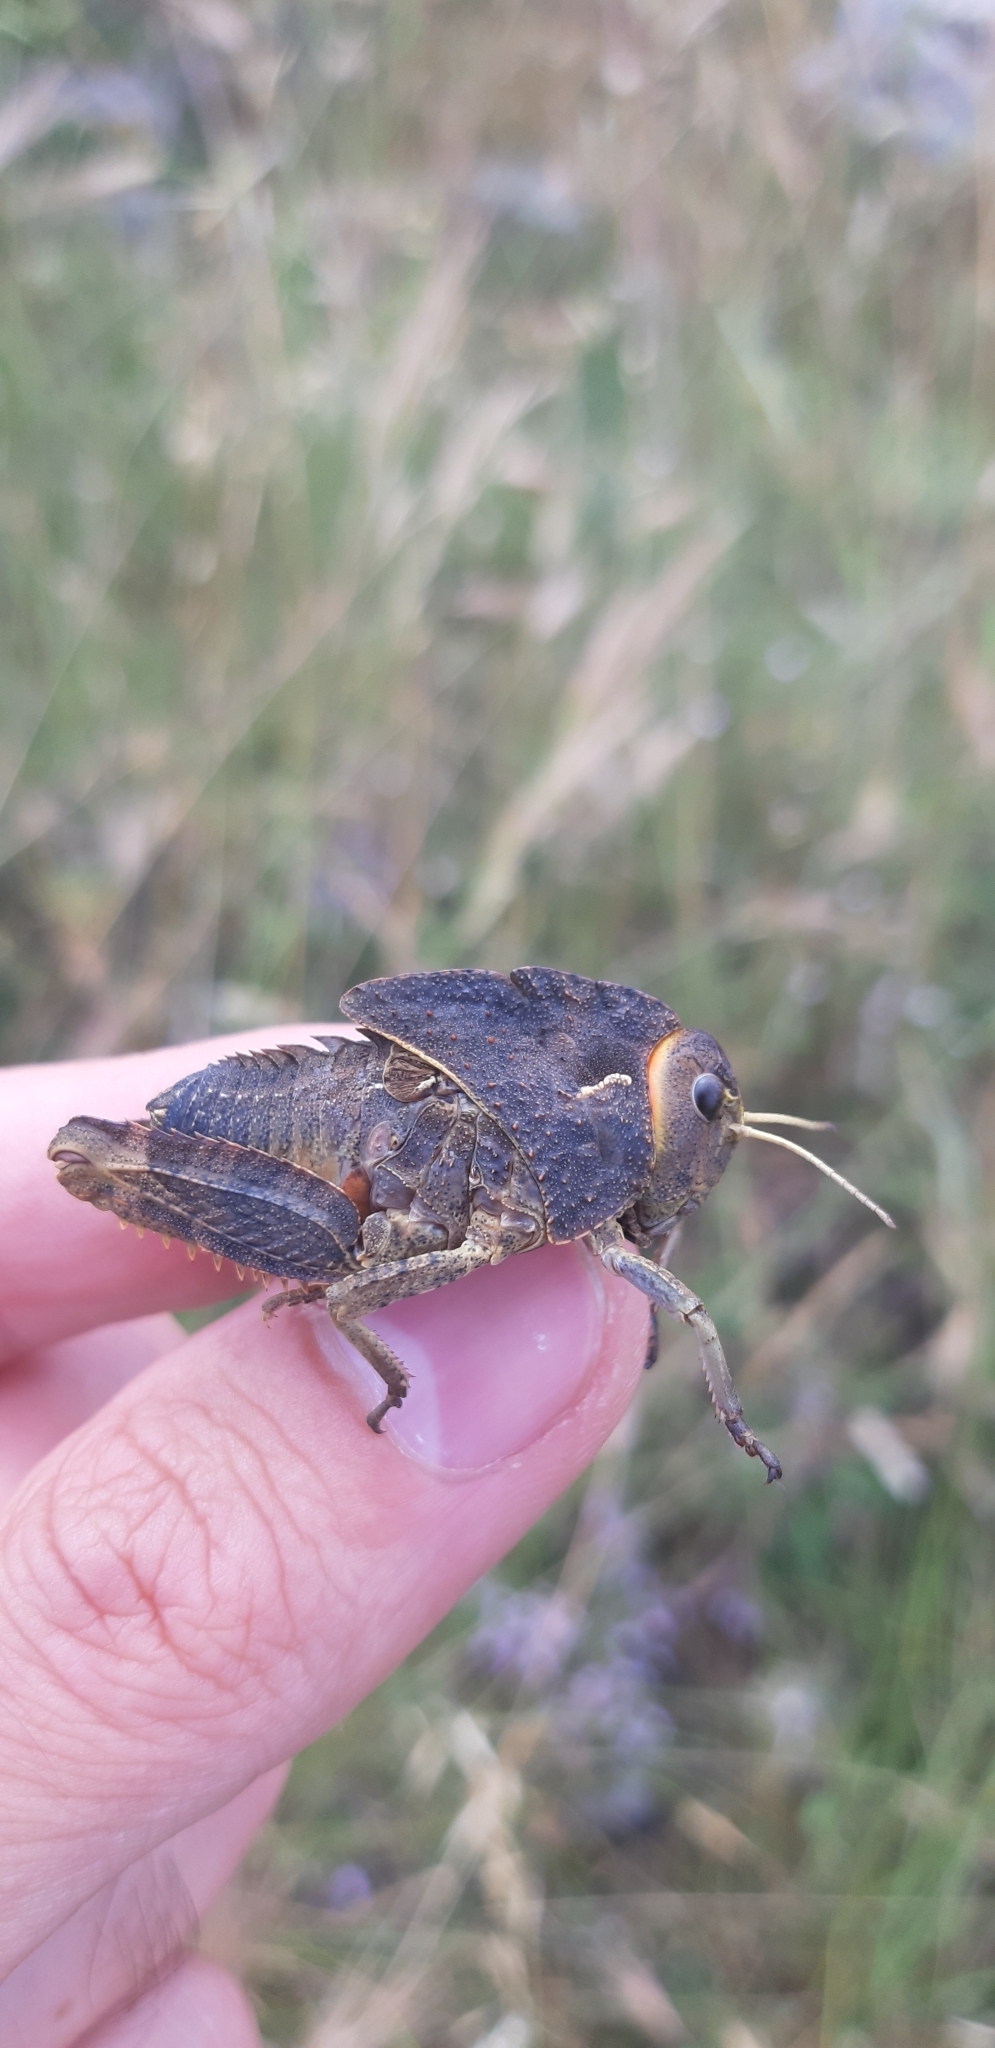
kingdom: Animalia
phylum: Arthropoda
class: Insecta
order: Orthoptera
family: Pamphagidae
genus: Prionotropis
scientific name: Prionotropis appula
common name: Apulian stone grasshopper
